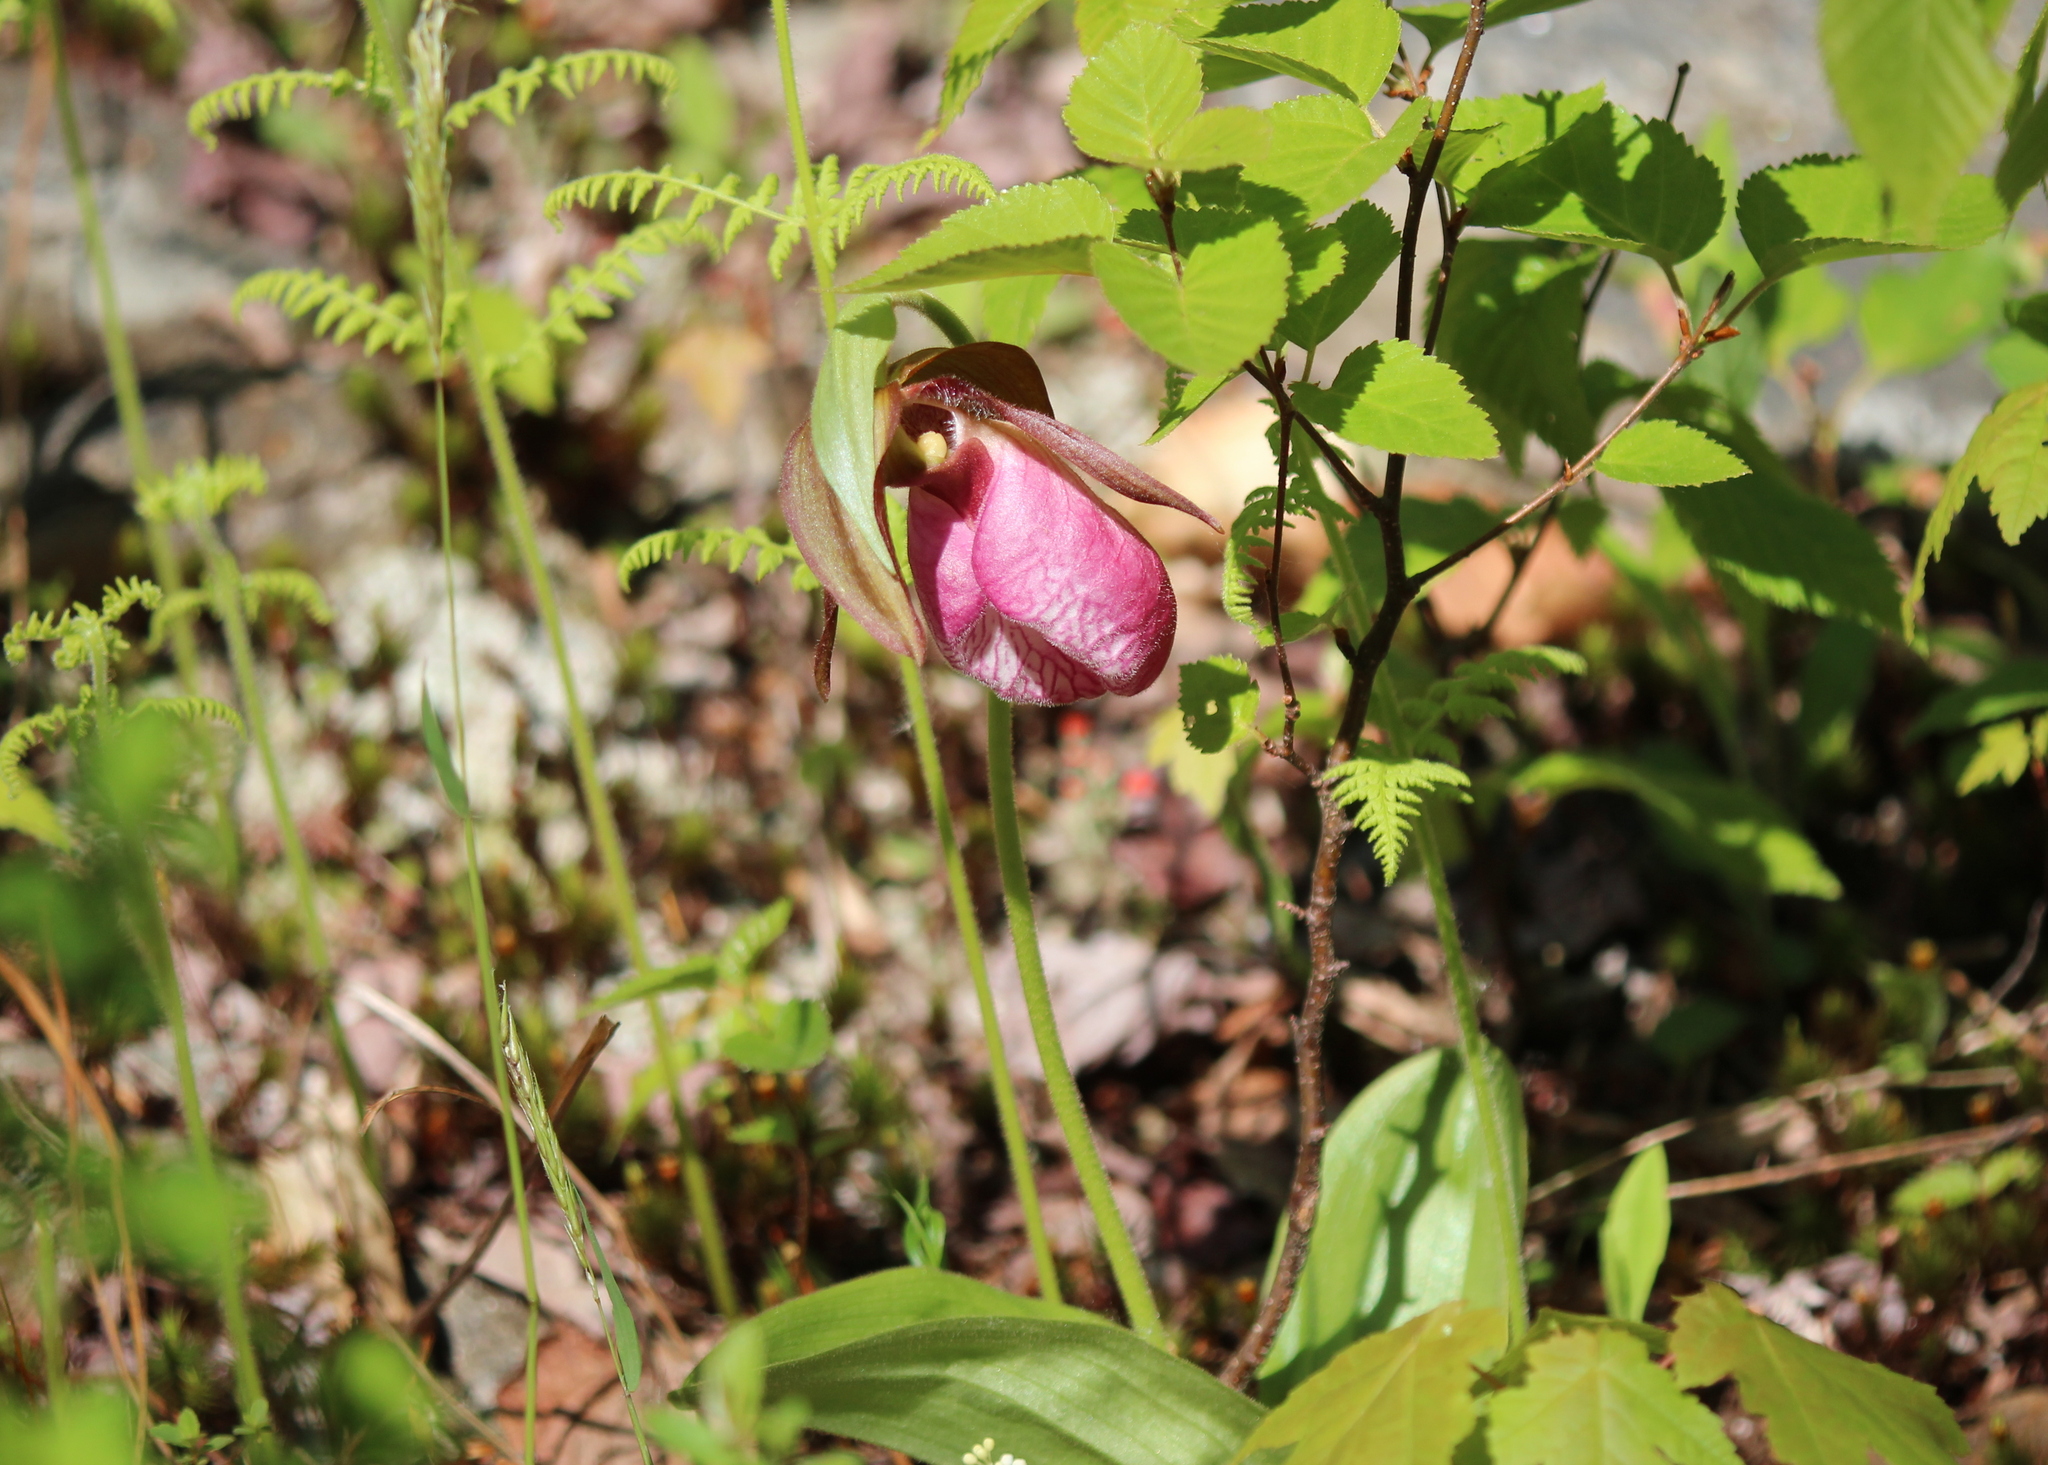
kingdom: Plantae
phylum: Tracheophyta
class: Liliopsida
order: Asparagales
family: Orchidaceae
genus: Cypripedium
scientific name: Cypripedium acaule
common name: Pink lady's-slipper
